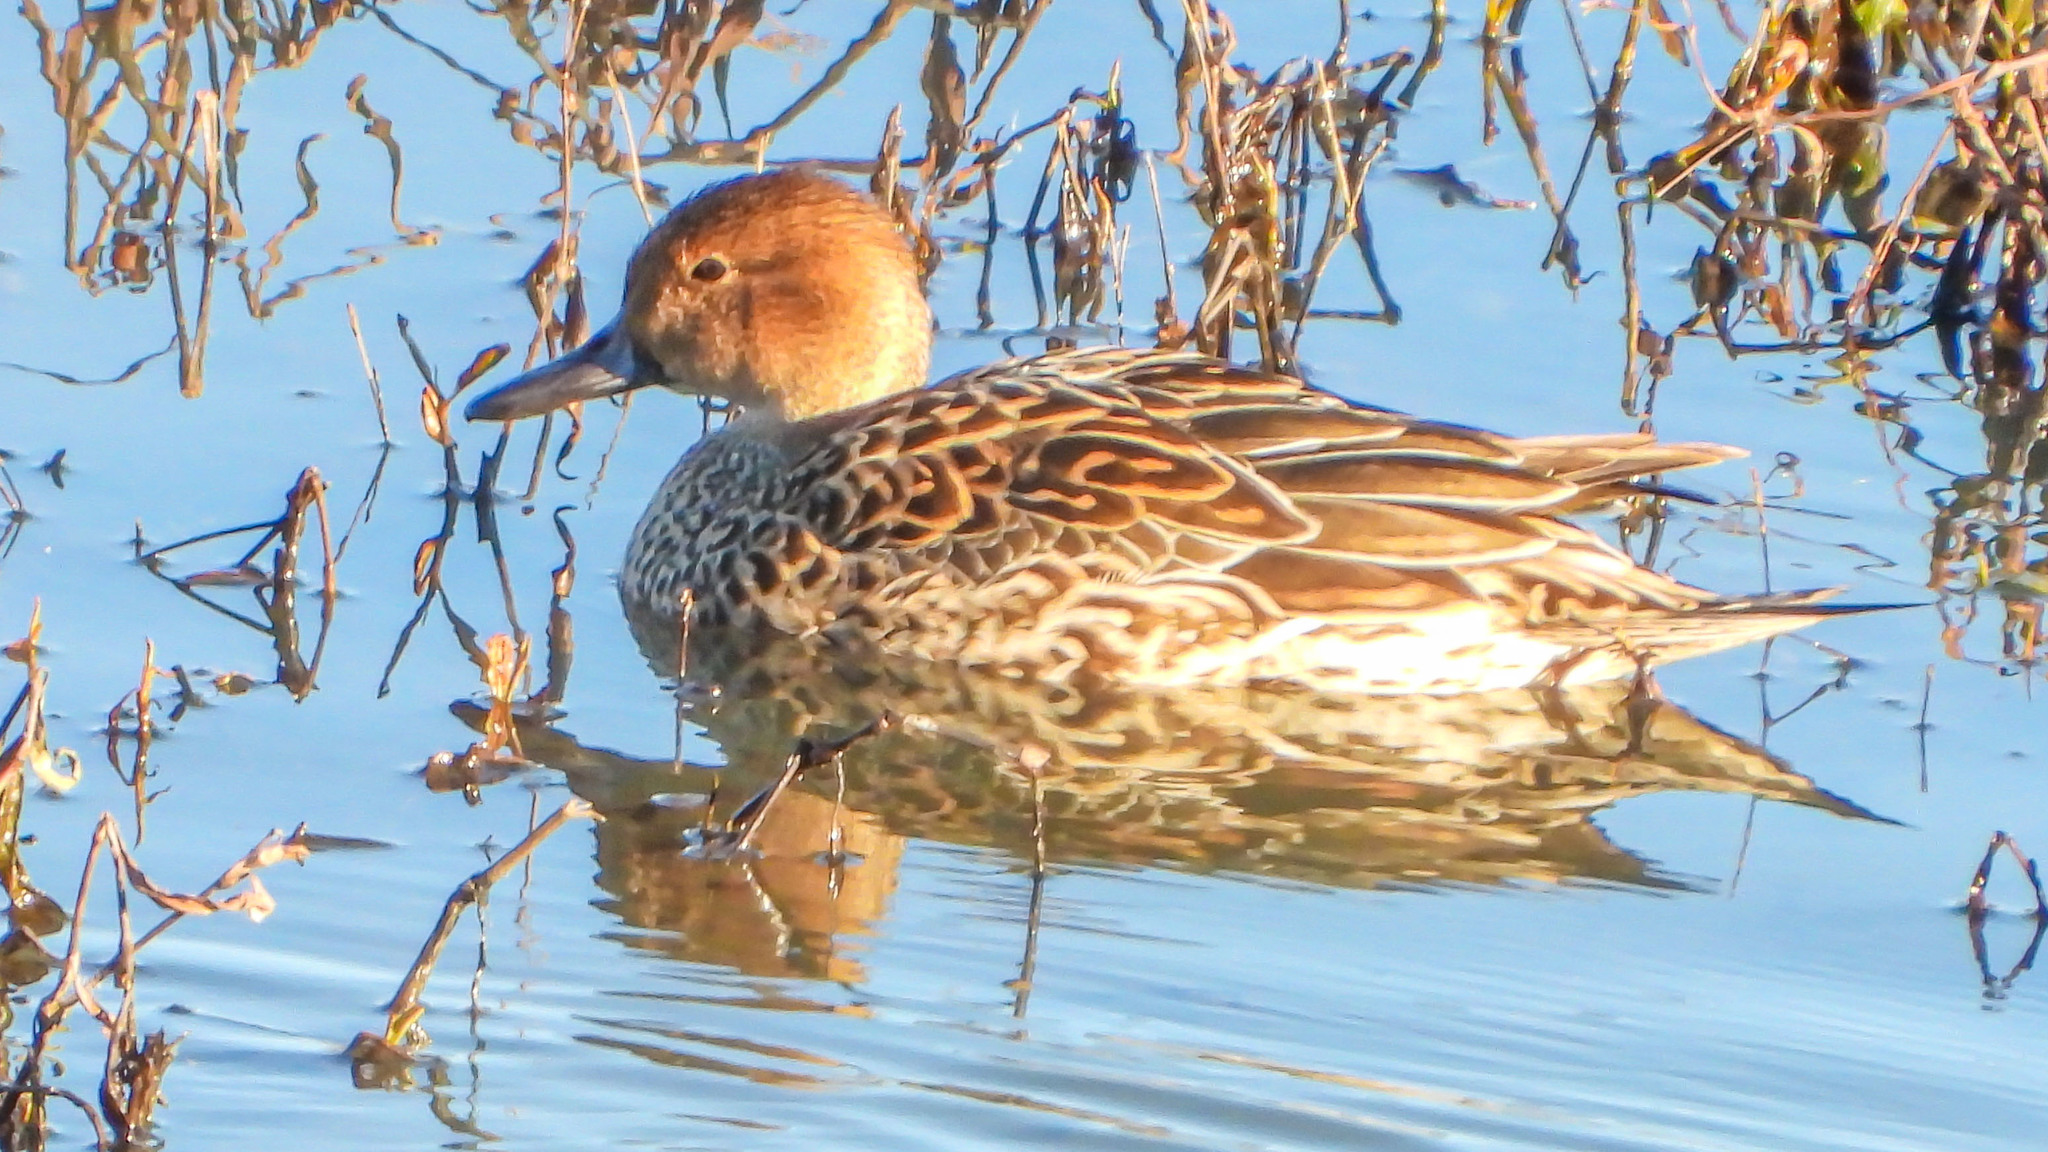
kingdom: Animalia
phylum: Chordata
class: Aves
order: Anseriformes
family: Anatidae
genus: Anas
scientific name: Anas acuta
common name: Northern pintail
